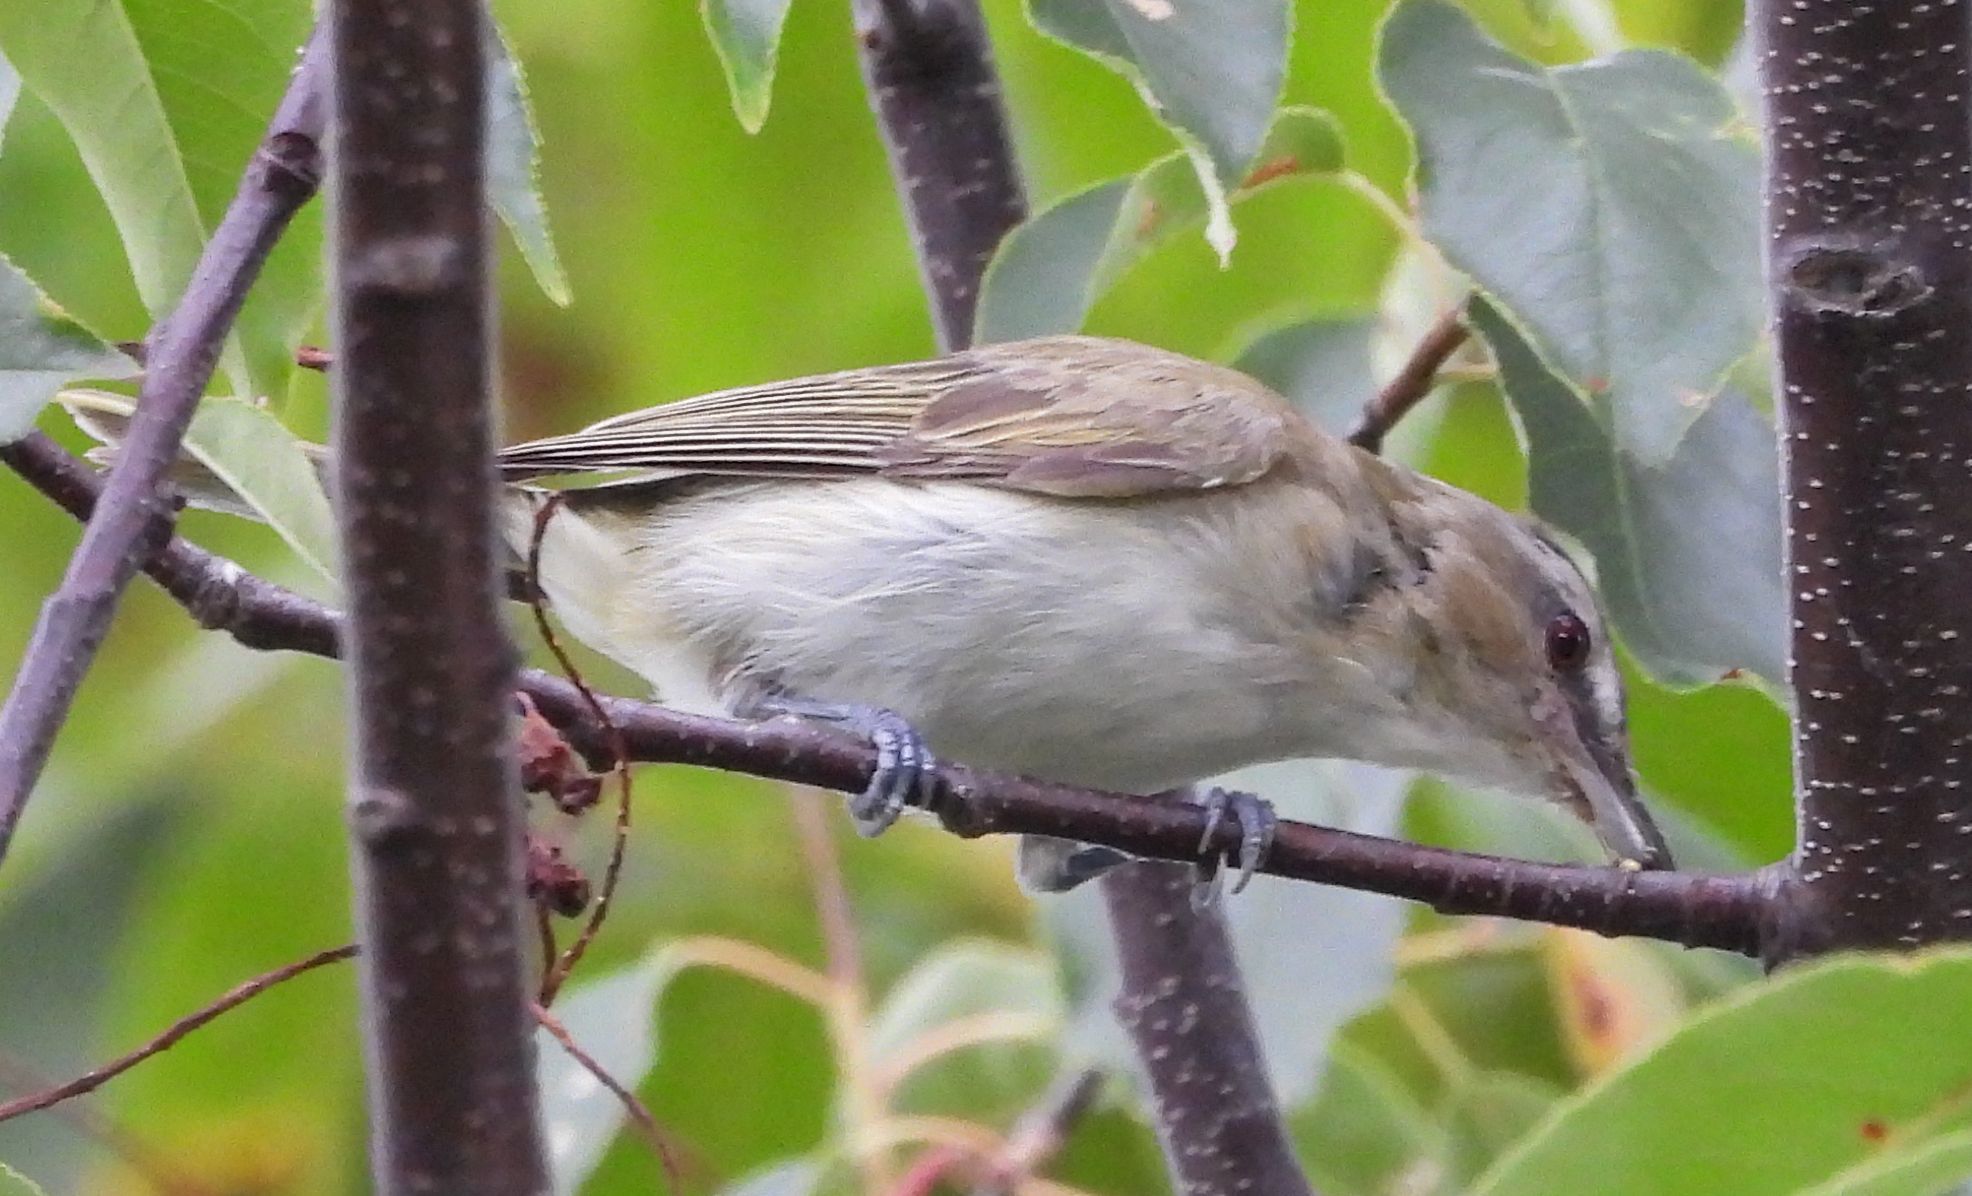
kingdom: Animalia
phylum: Chordata
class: Aves
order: Passeriformes
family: Vireonidae
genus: Vireo
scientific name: Vireo olivaceus
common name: Red-eyed vireo
